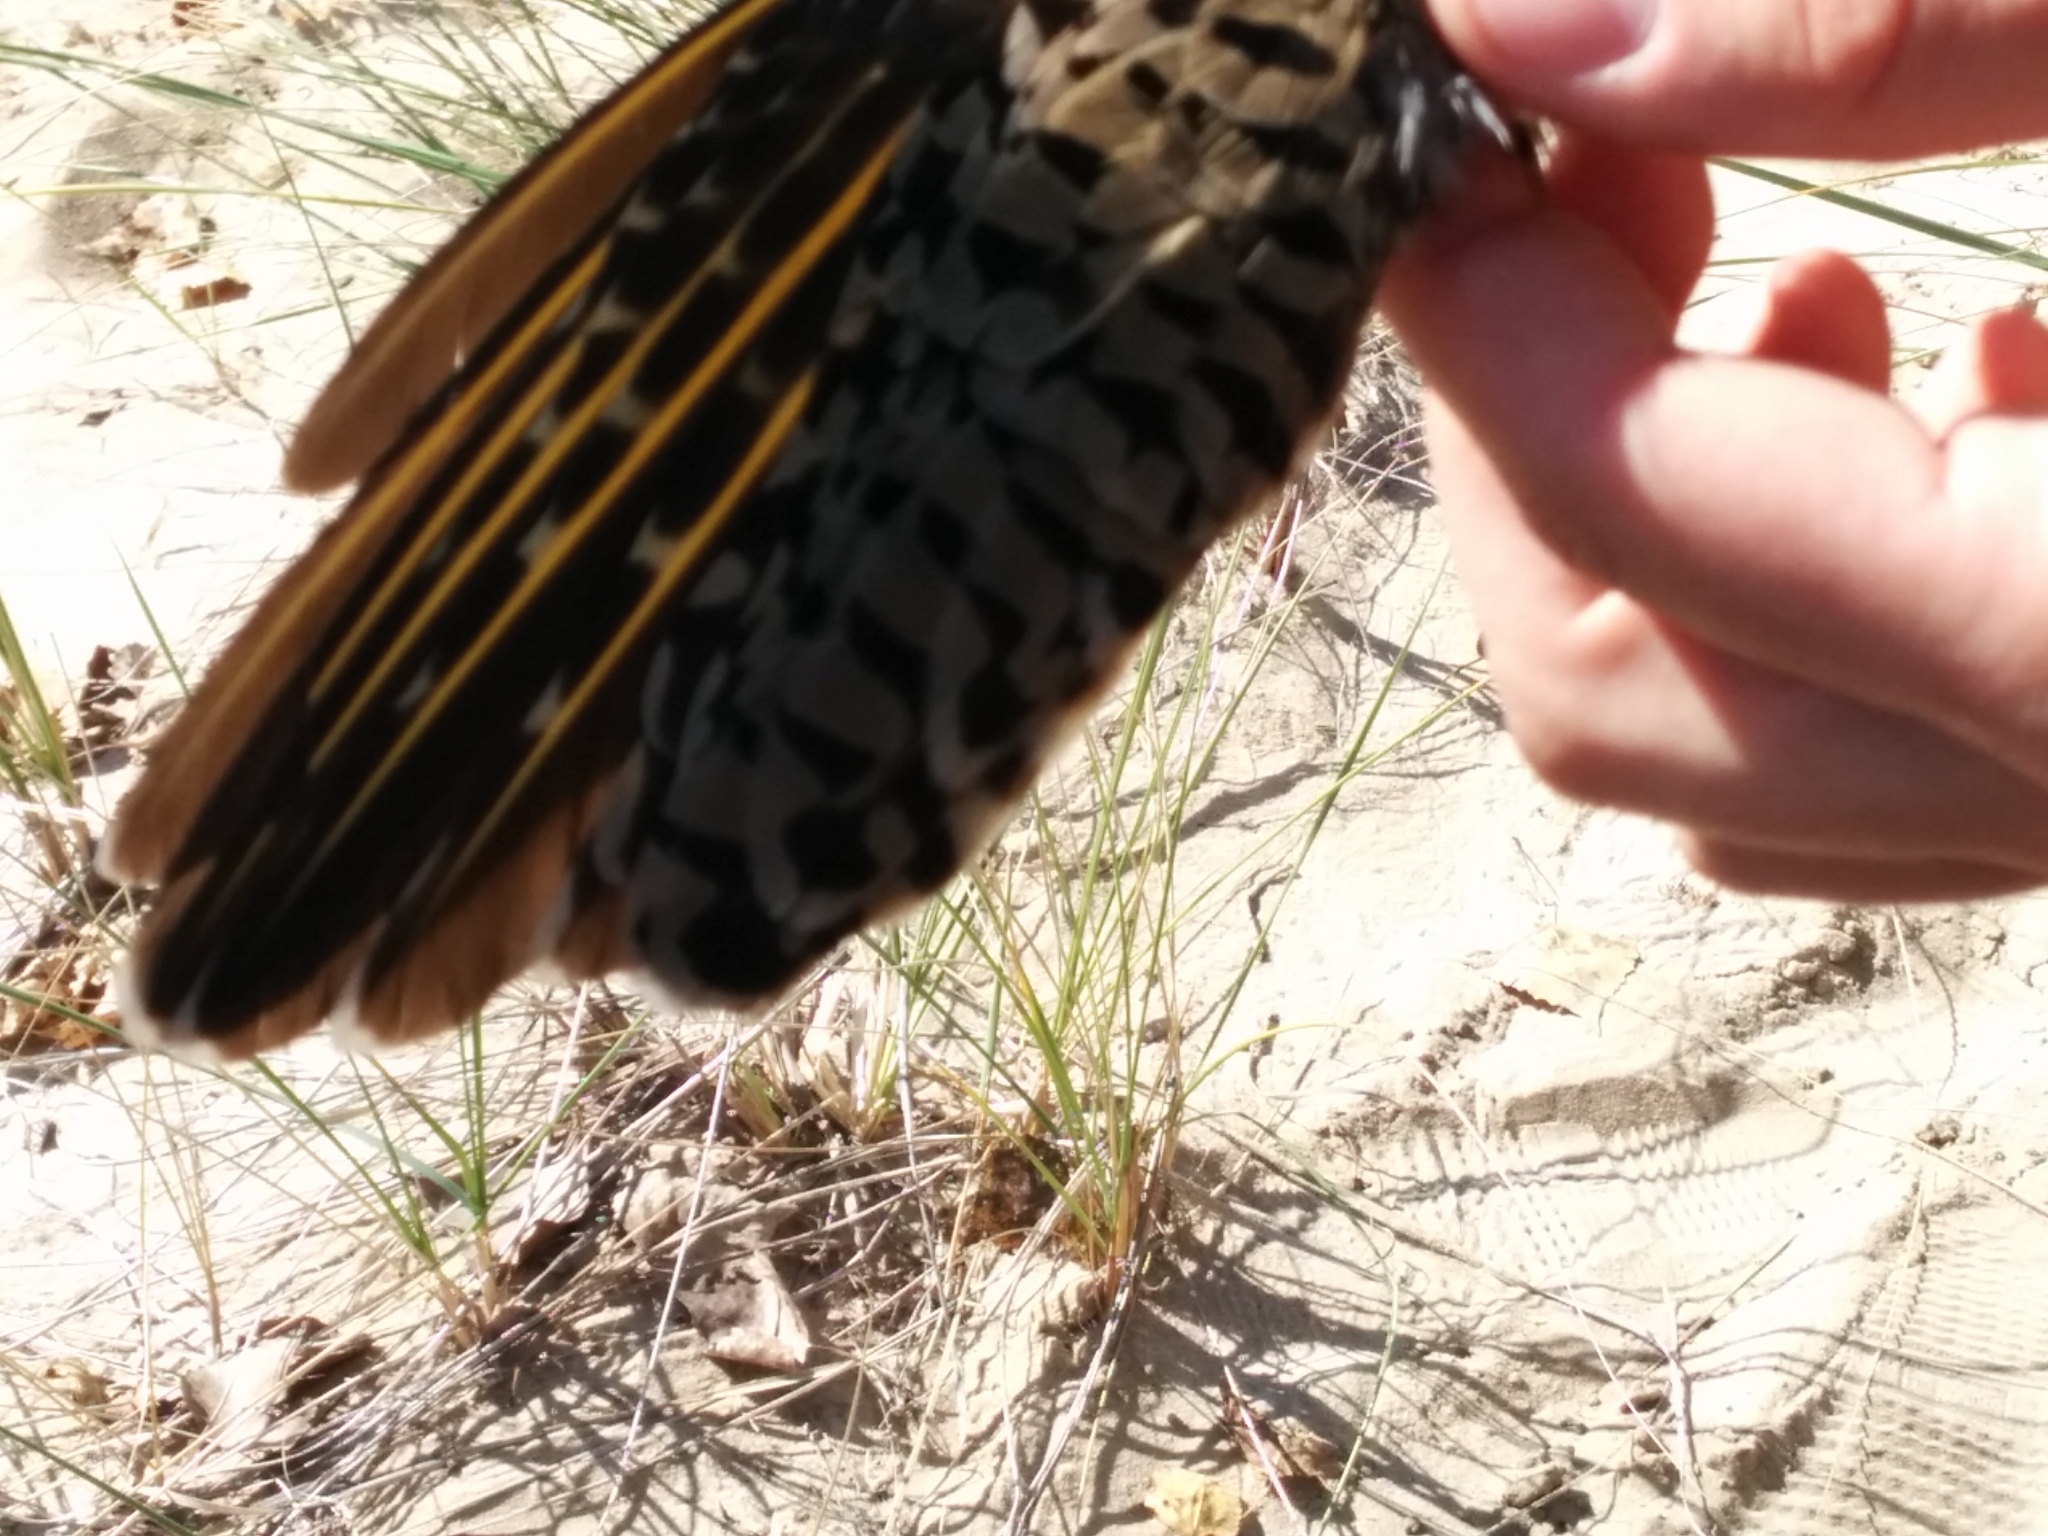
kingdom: Animalia
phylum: Chordata
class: Aves
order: Piciformes
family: Picidae
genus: Colaptes
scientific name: Colaptes auratus
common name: Northern flicker
